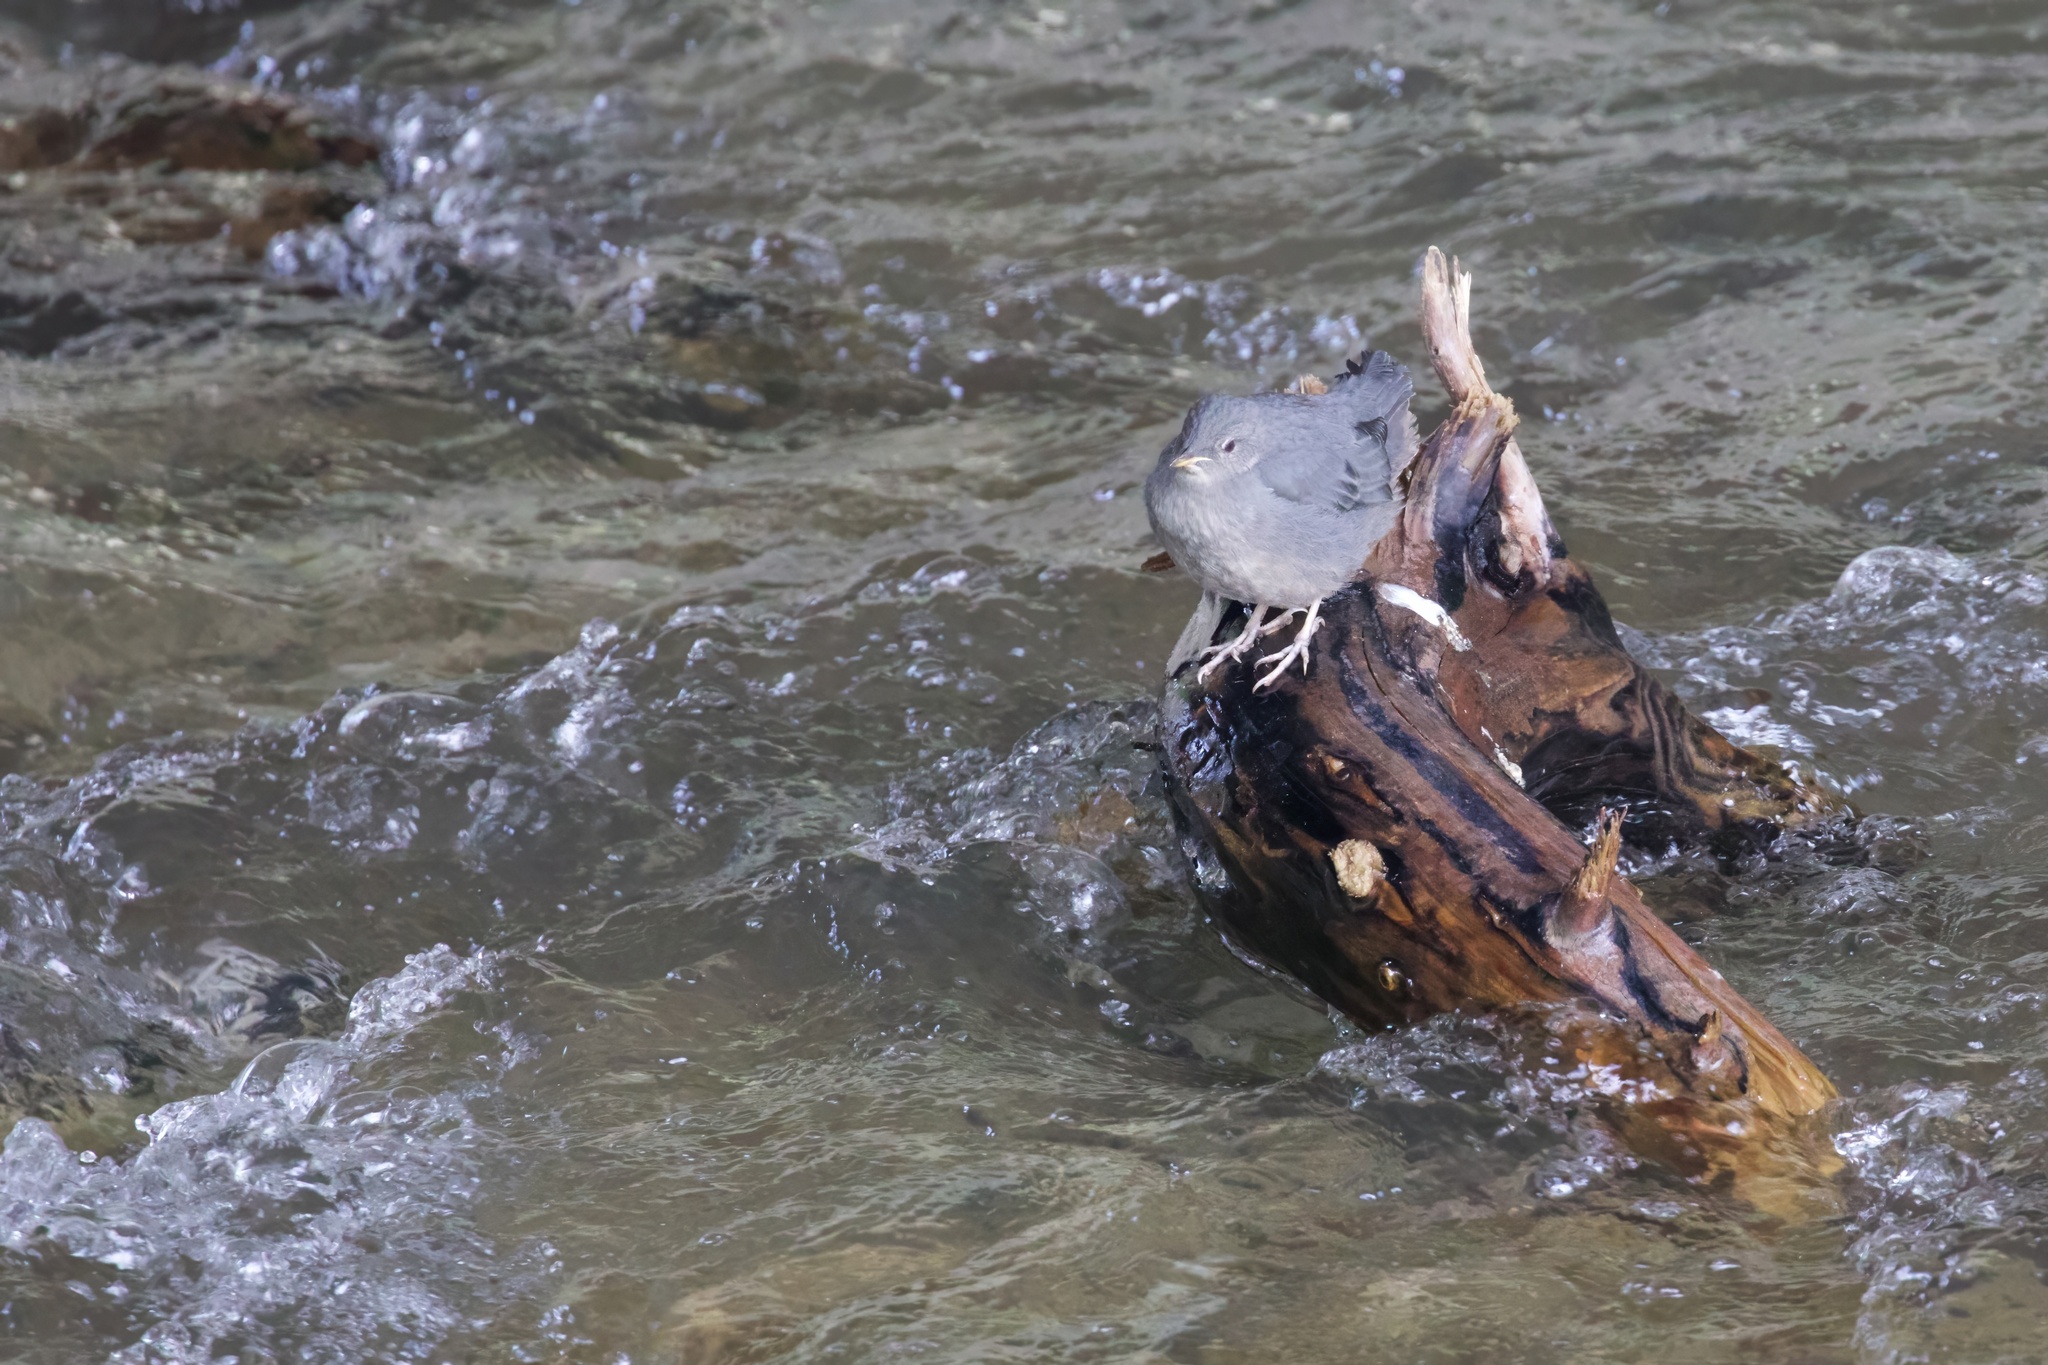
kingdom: Animalia
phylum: Chordata
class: Aves
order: Passeriformes
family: Cinclidae
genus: Cinclus
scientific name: Cinclus mexicanus
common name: American dipper
